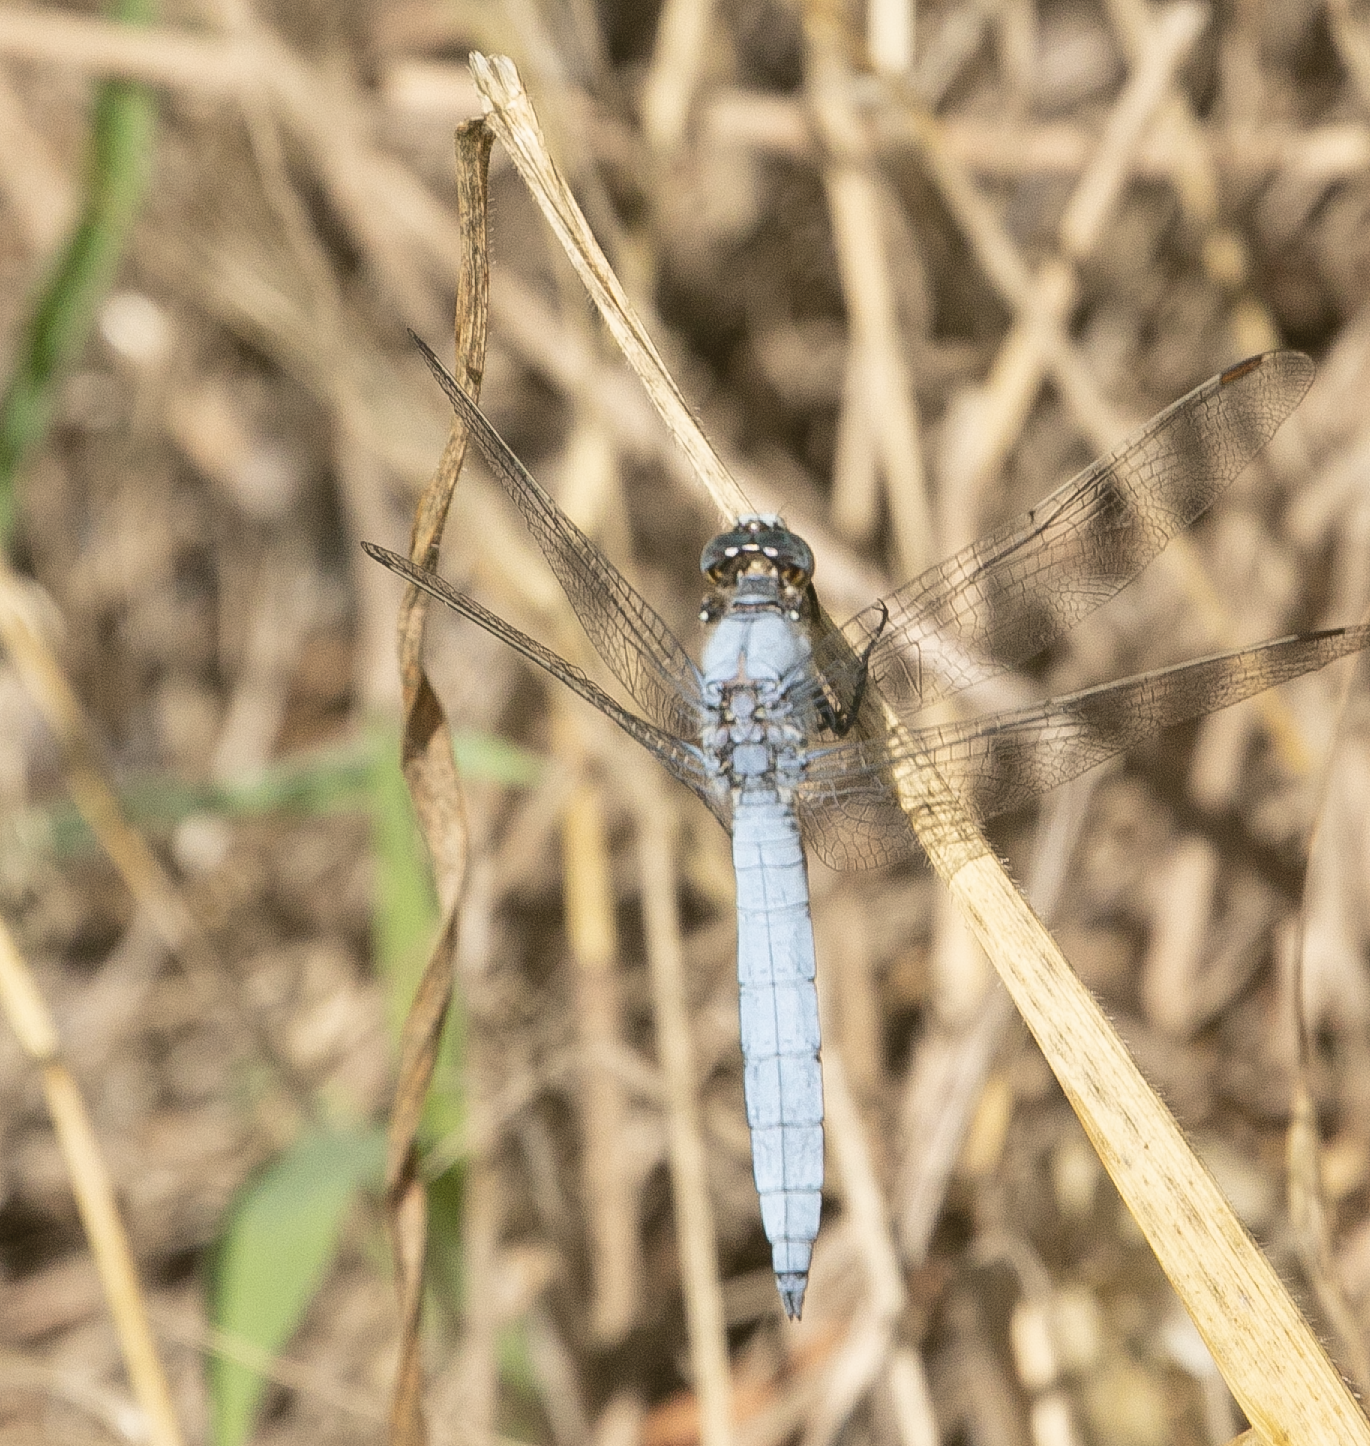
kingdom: Animalia
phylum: Arthropoda
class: Insecta
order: Odonata
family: Libellulidae
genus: Orthetrum
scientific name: Orthetrum brunneum
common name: Southern skimmer
